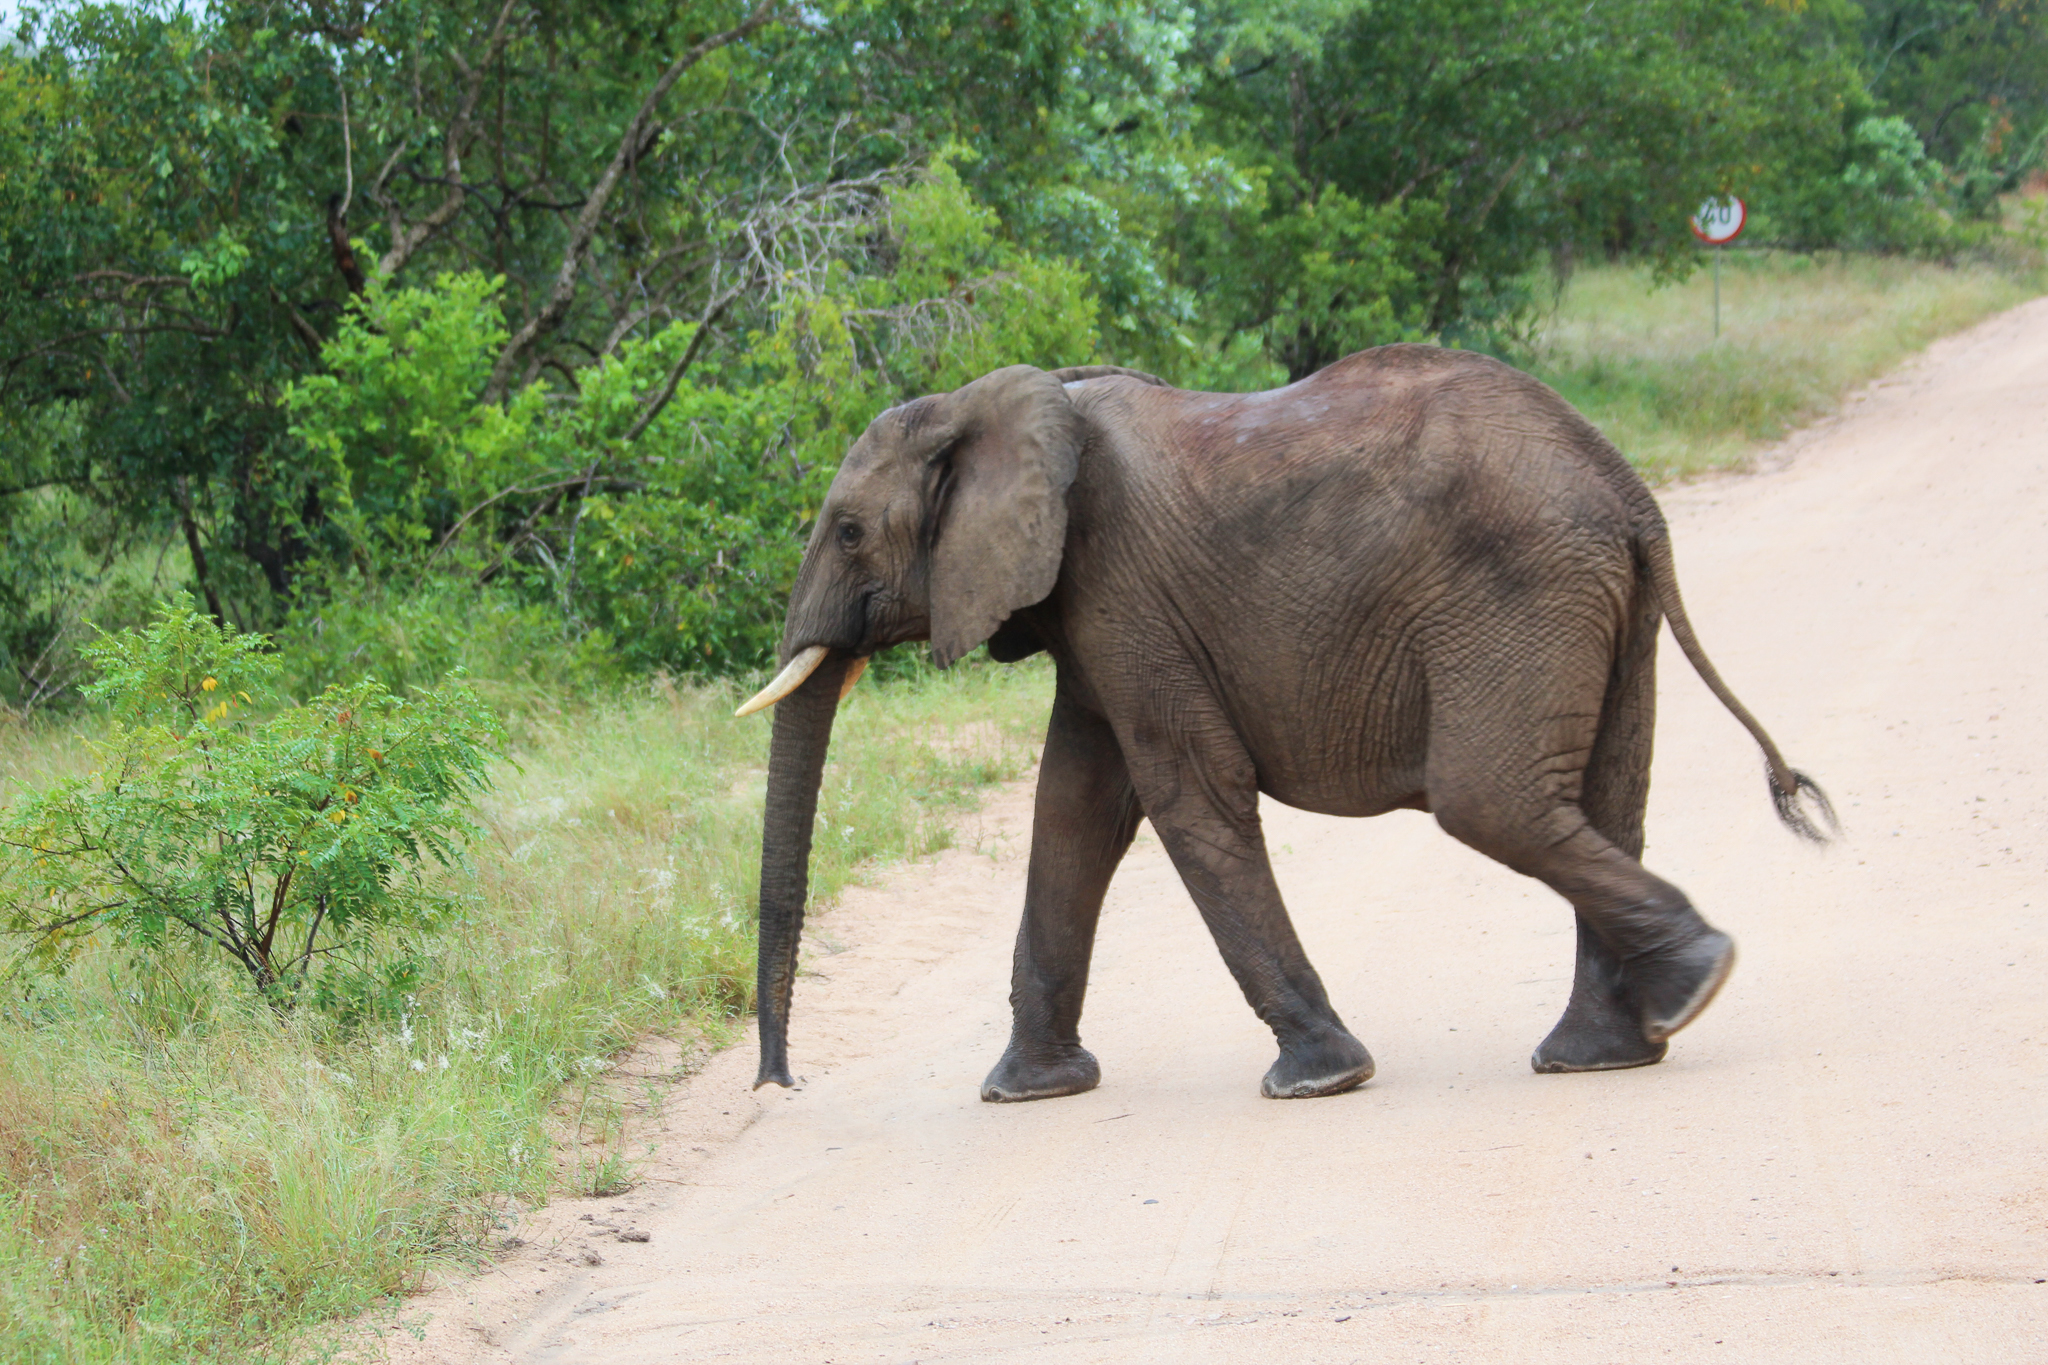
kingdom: Animalia
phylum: Chordata
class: Mammalia
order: Proboscidea
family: Elephantidae
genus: Loxodonta
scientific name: Loxodonta africana
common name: African elephant
